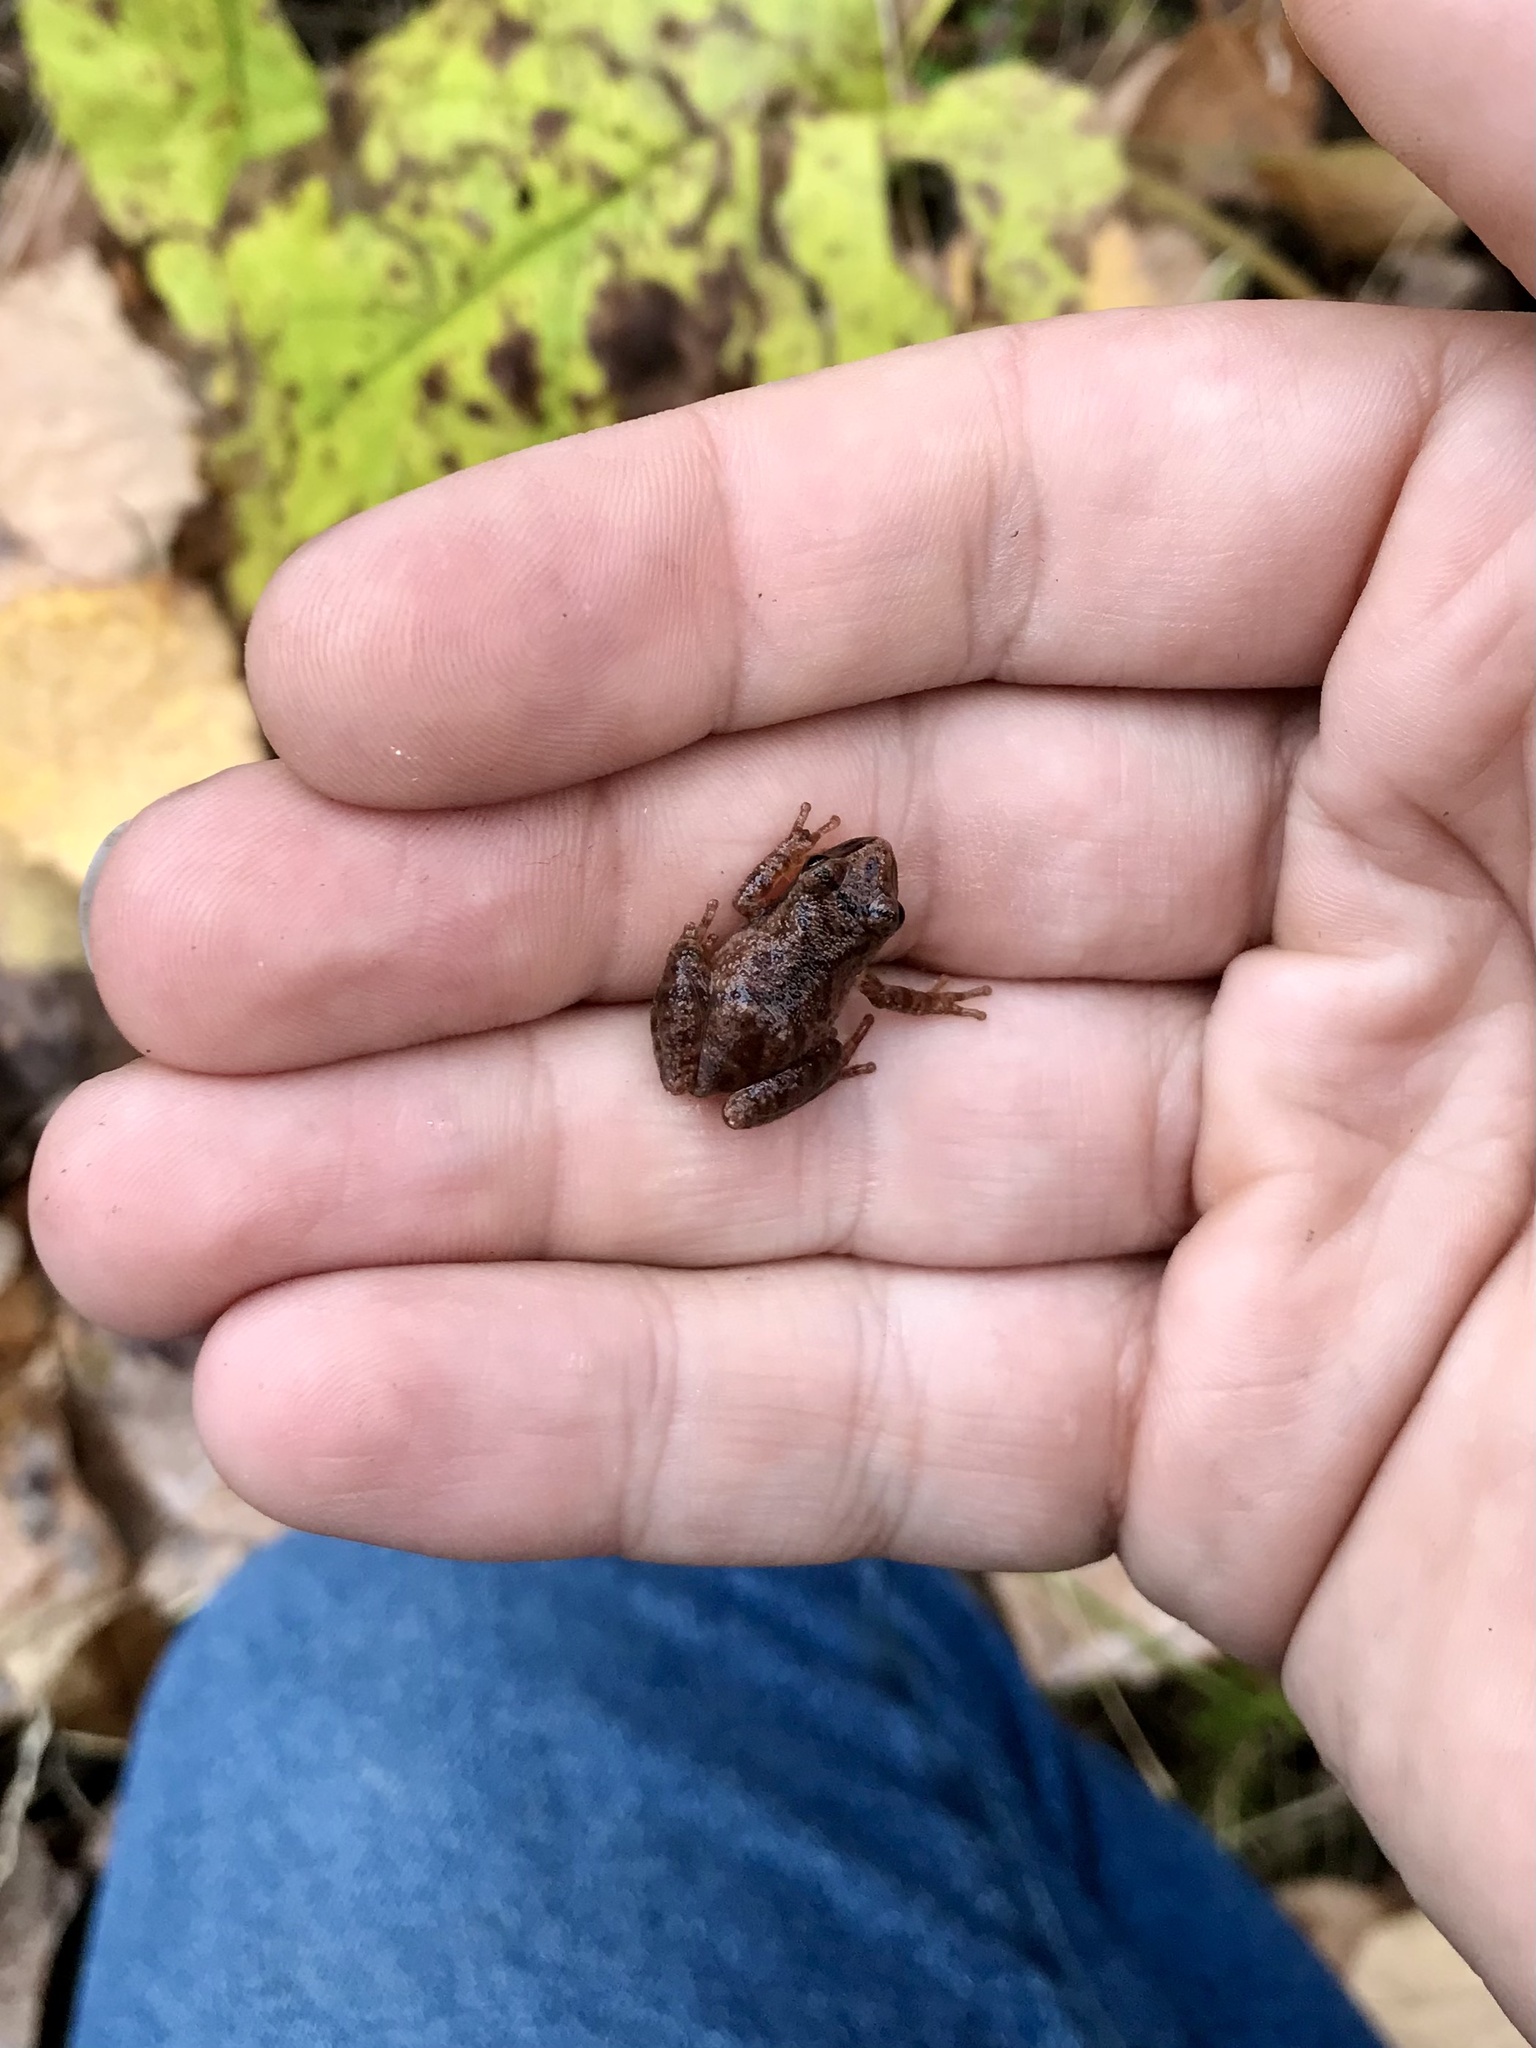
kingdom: Animalia
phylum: Chordata
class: Amphibia
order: Anura
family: Hylidae
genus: Pseudacris
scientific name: Pseudacris crucifer
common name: Spring peeper
